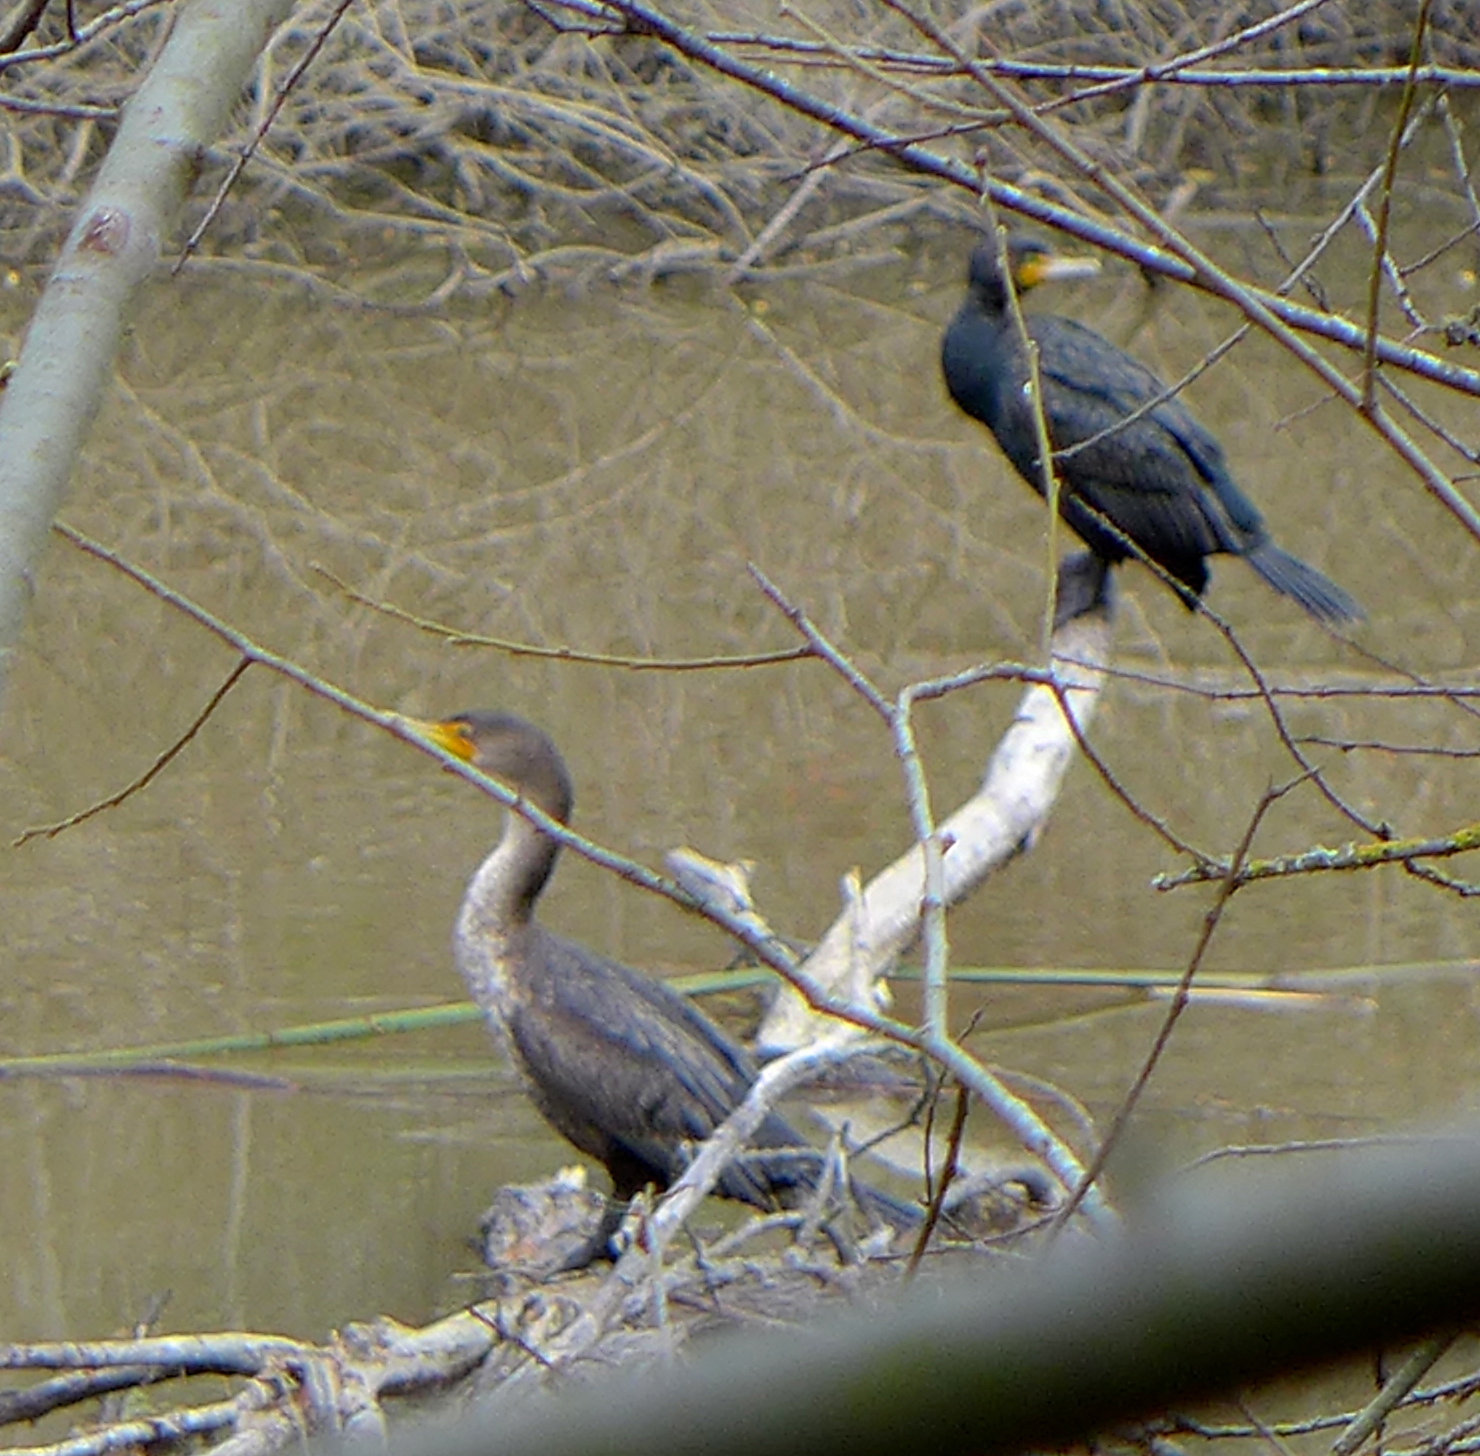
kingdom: Animalia
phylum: Chordata
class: Aves
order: Suliformes
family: Phalacrocoracidae
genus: Phalacrocorax
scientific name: Phalacrocorax auritus
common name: Double-crested cormorant
